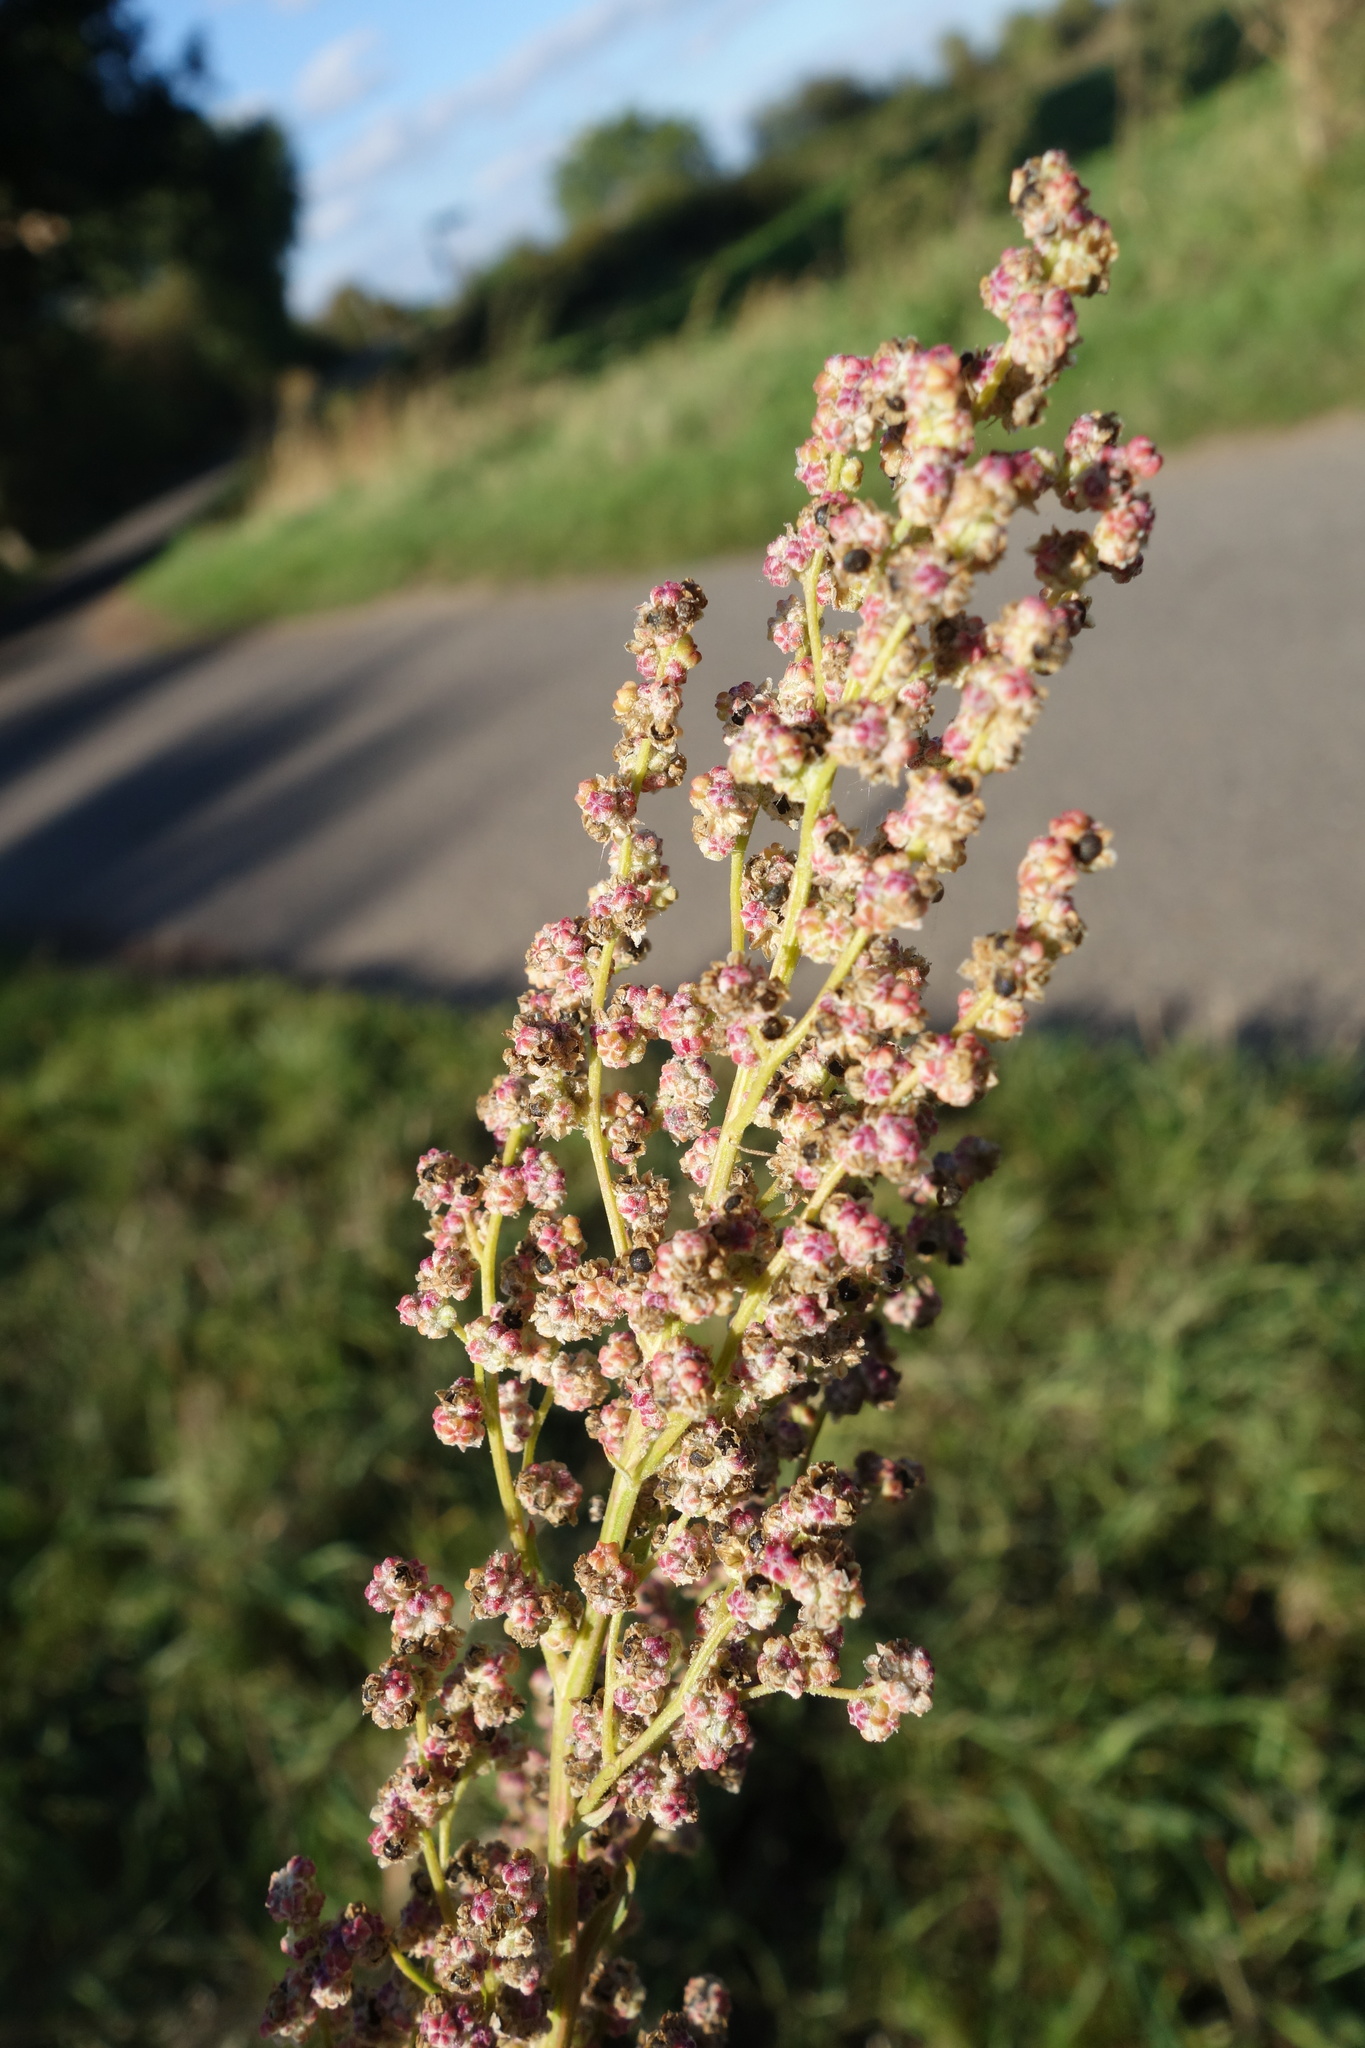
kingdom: Plantae
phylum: Tracheophyta
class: Magnoliopsida
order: Caryophyllales
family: Amaranthaceae
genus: Chenopodium
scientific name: Chenopodium album
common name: Fat-hen
